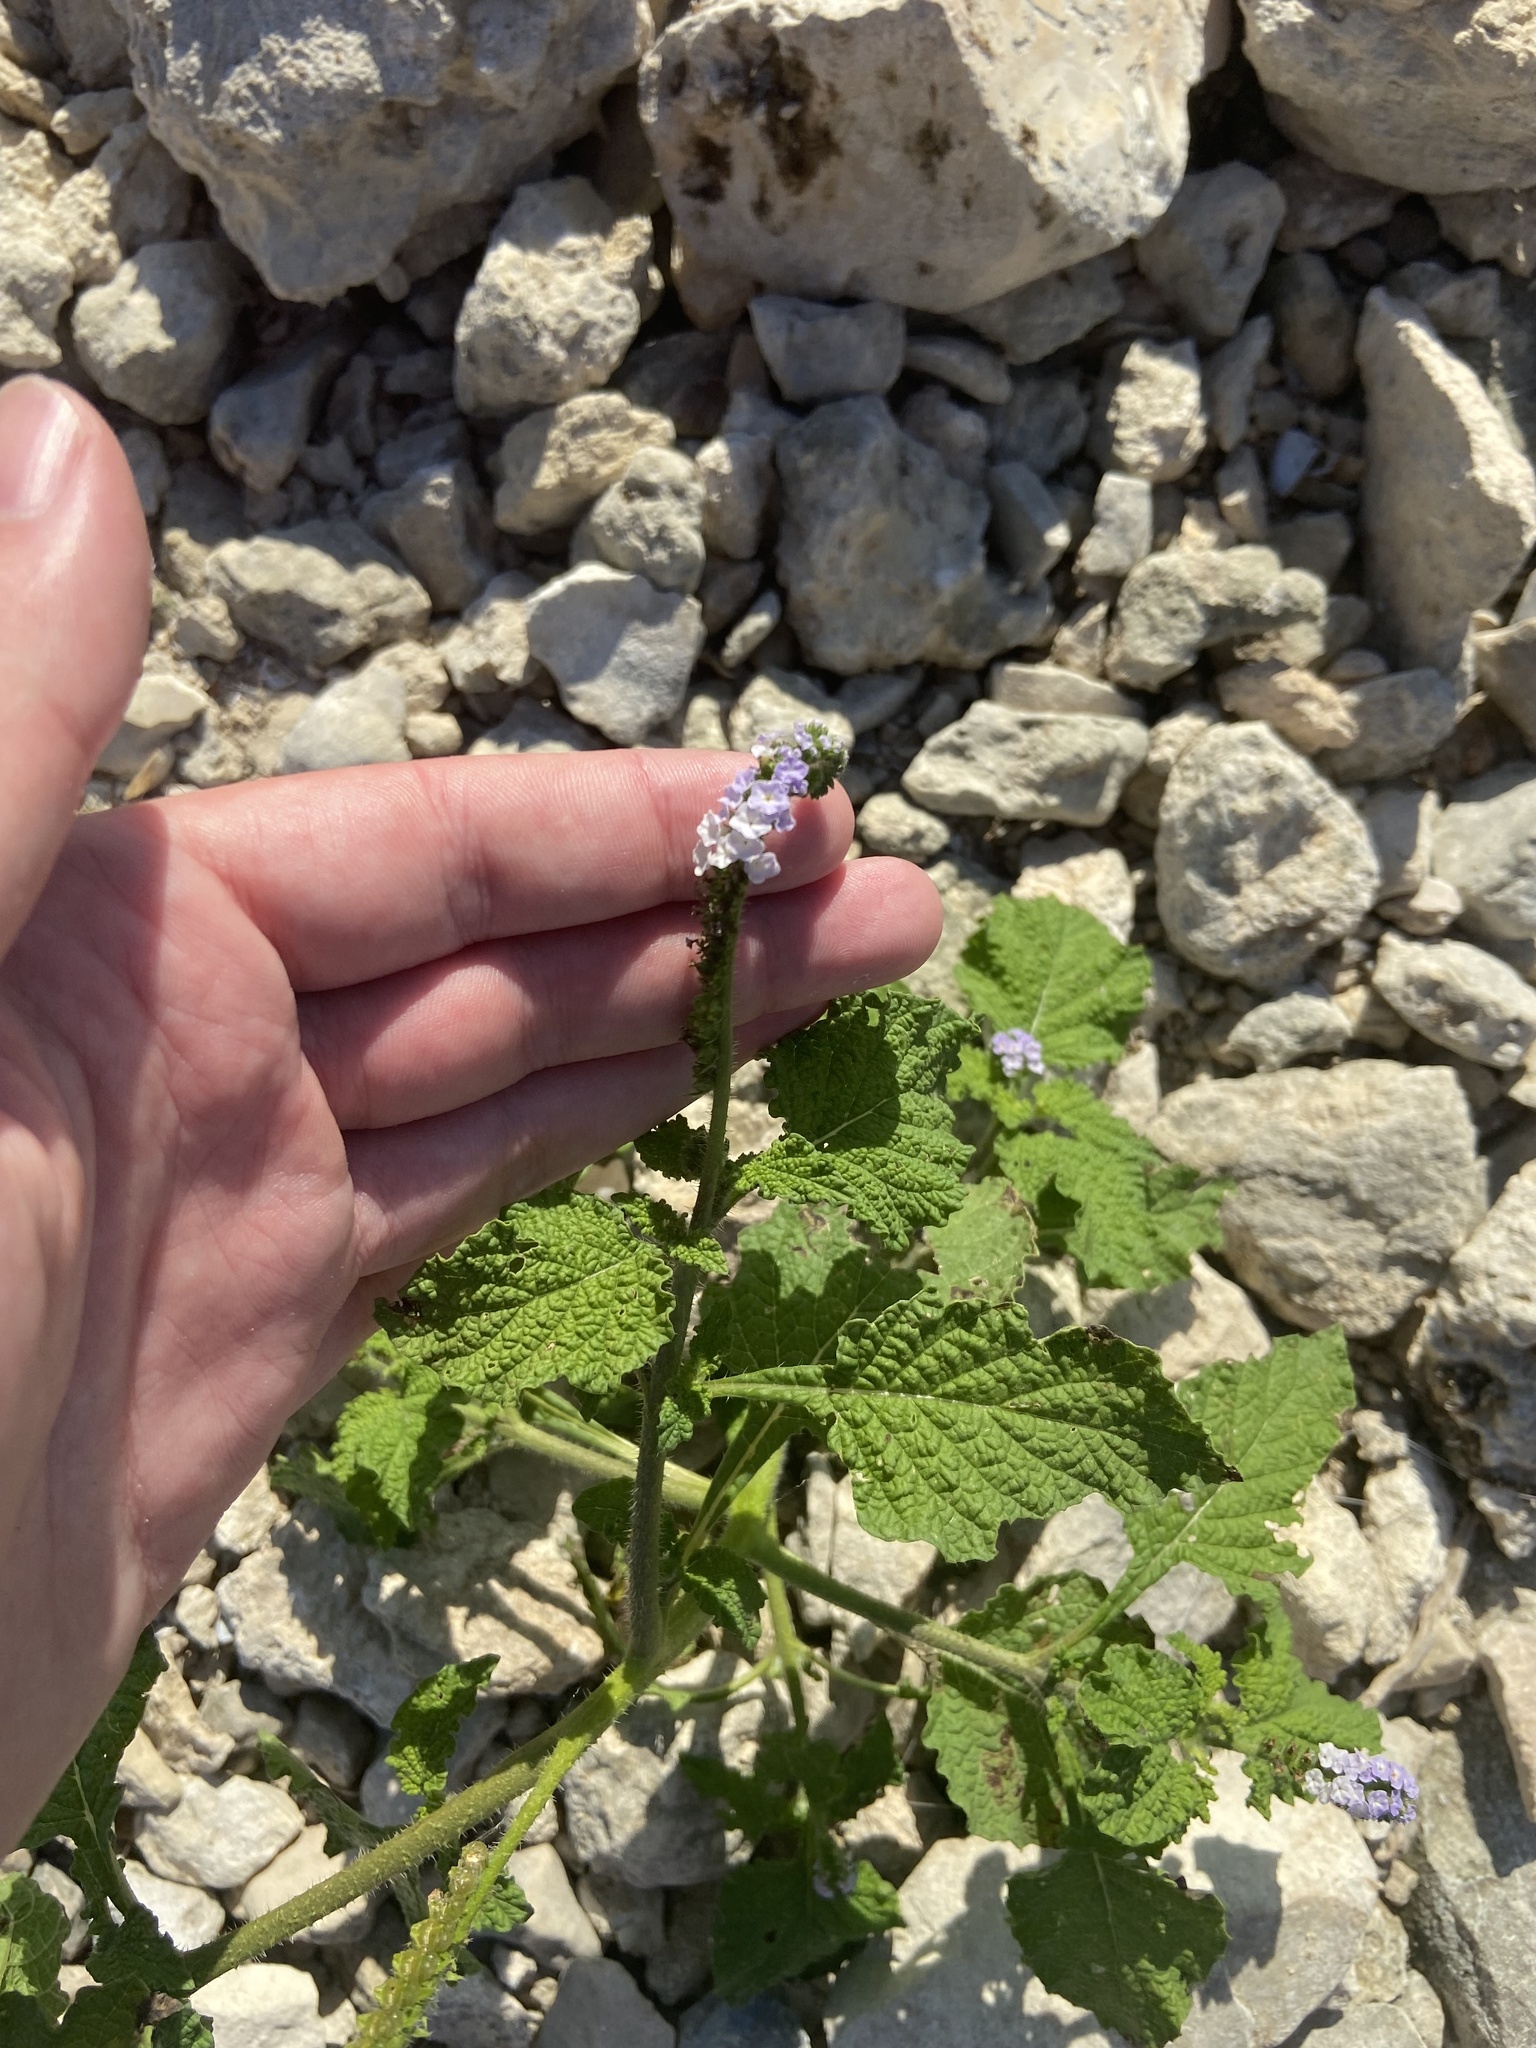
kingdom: Plantae
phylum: Tracheophyta
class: Magnoliopsida
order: Boraginales
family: Heliotropiaceae
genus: Heliotropium
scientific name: Heliotropium indicum
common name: Indian heliotrope
